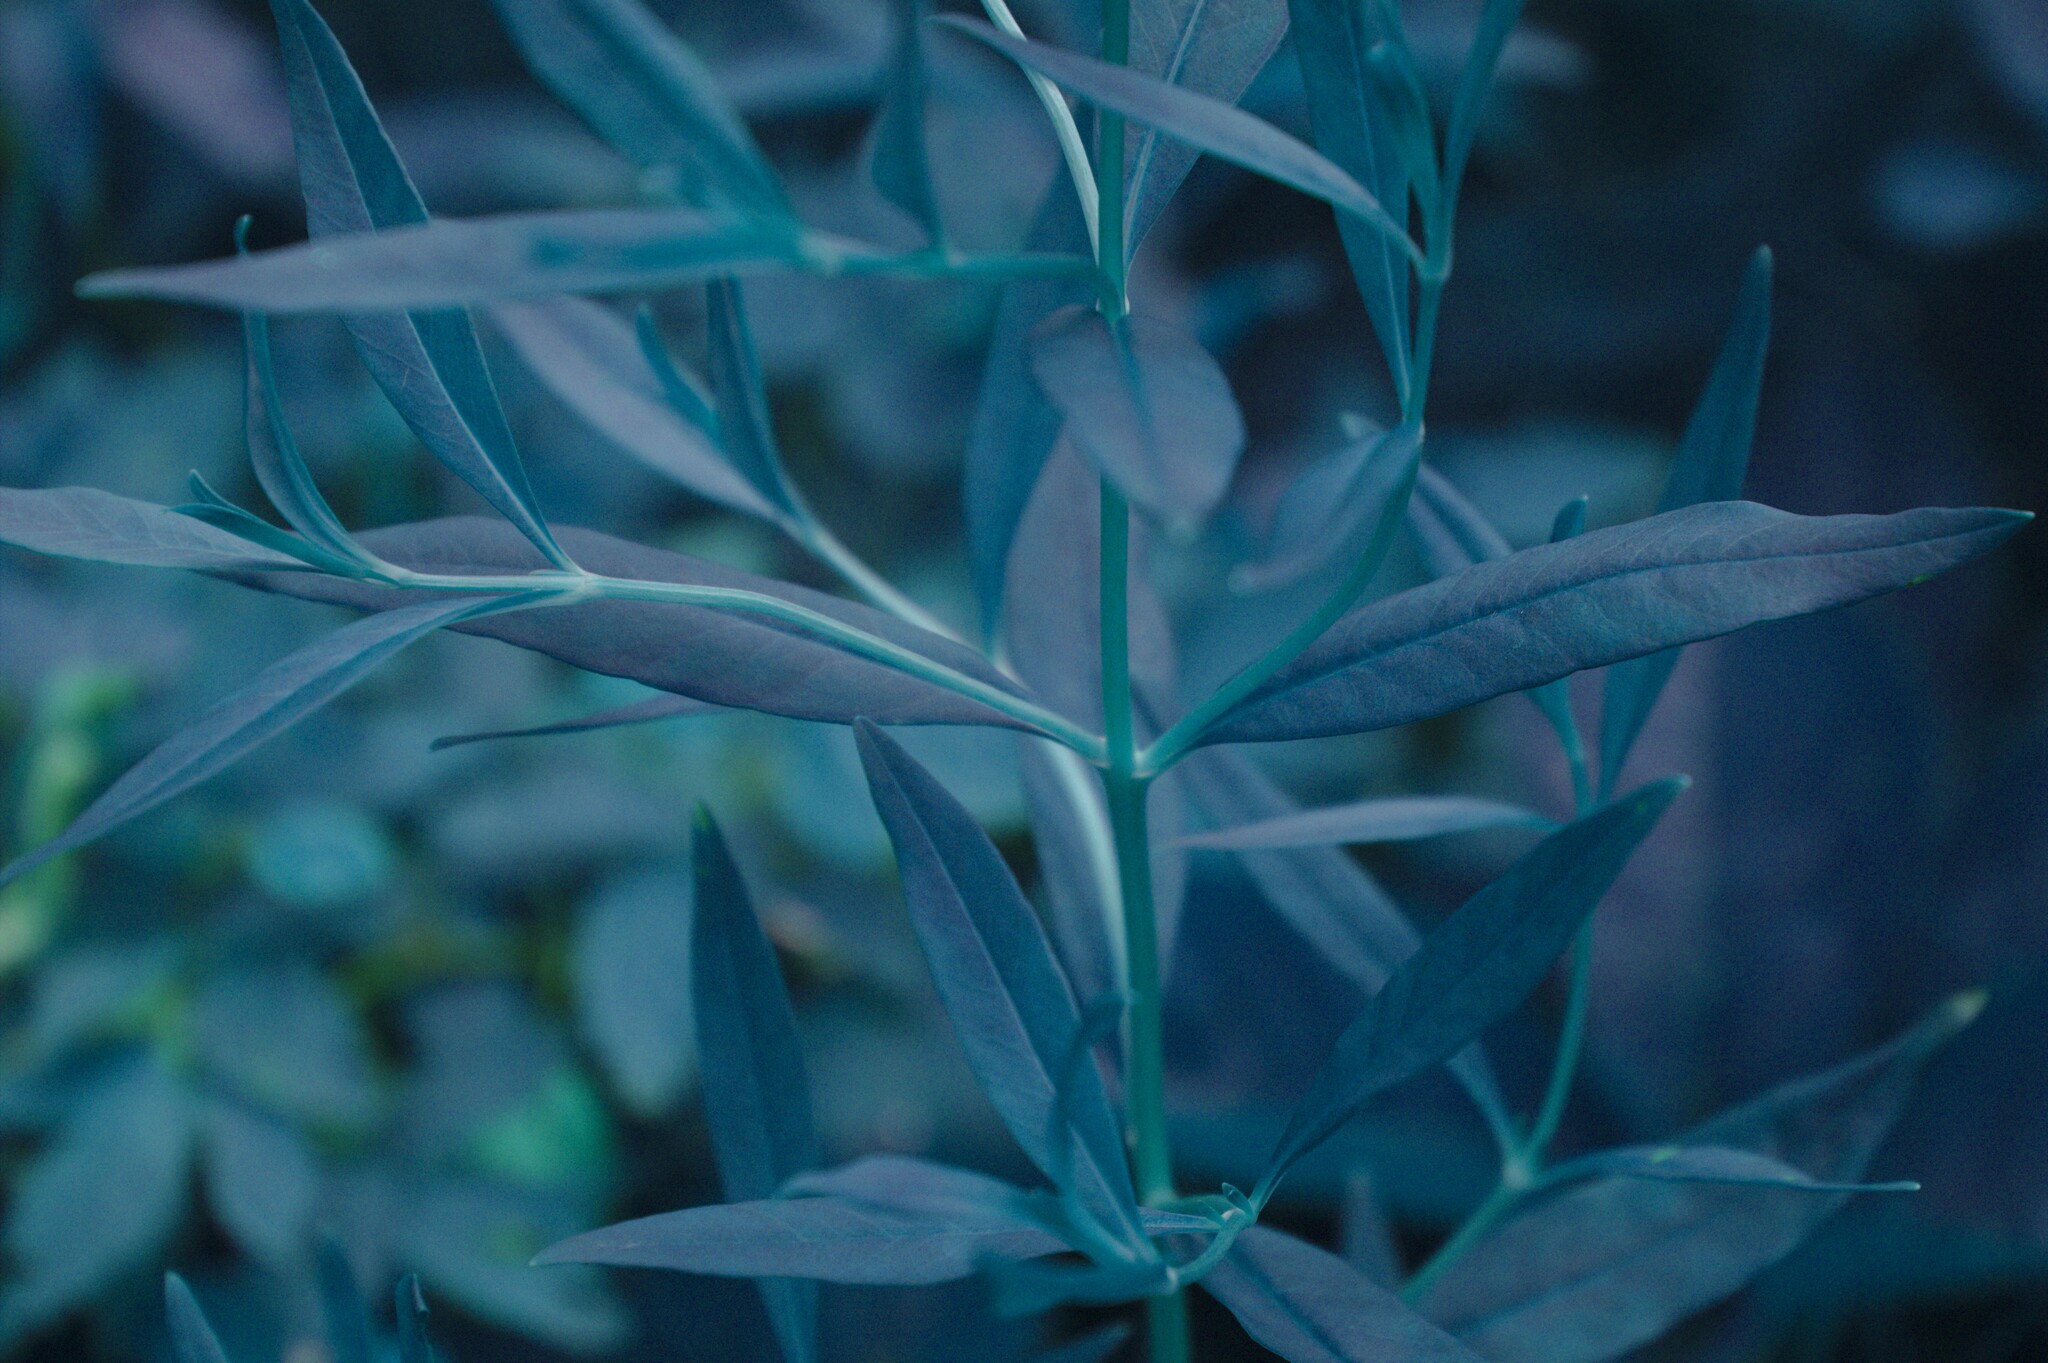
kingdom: Plantae
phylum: Tracheophyta
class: Magnoliopsida
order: Ericales
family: Primulaceae
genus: Lysimachia
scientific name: Lysimachia terrestris
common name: Lake loosestrife
